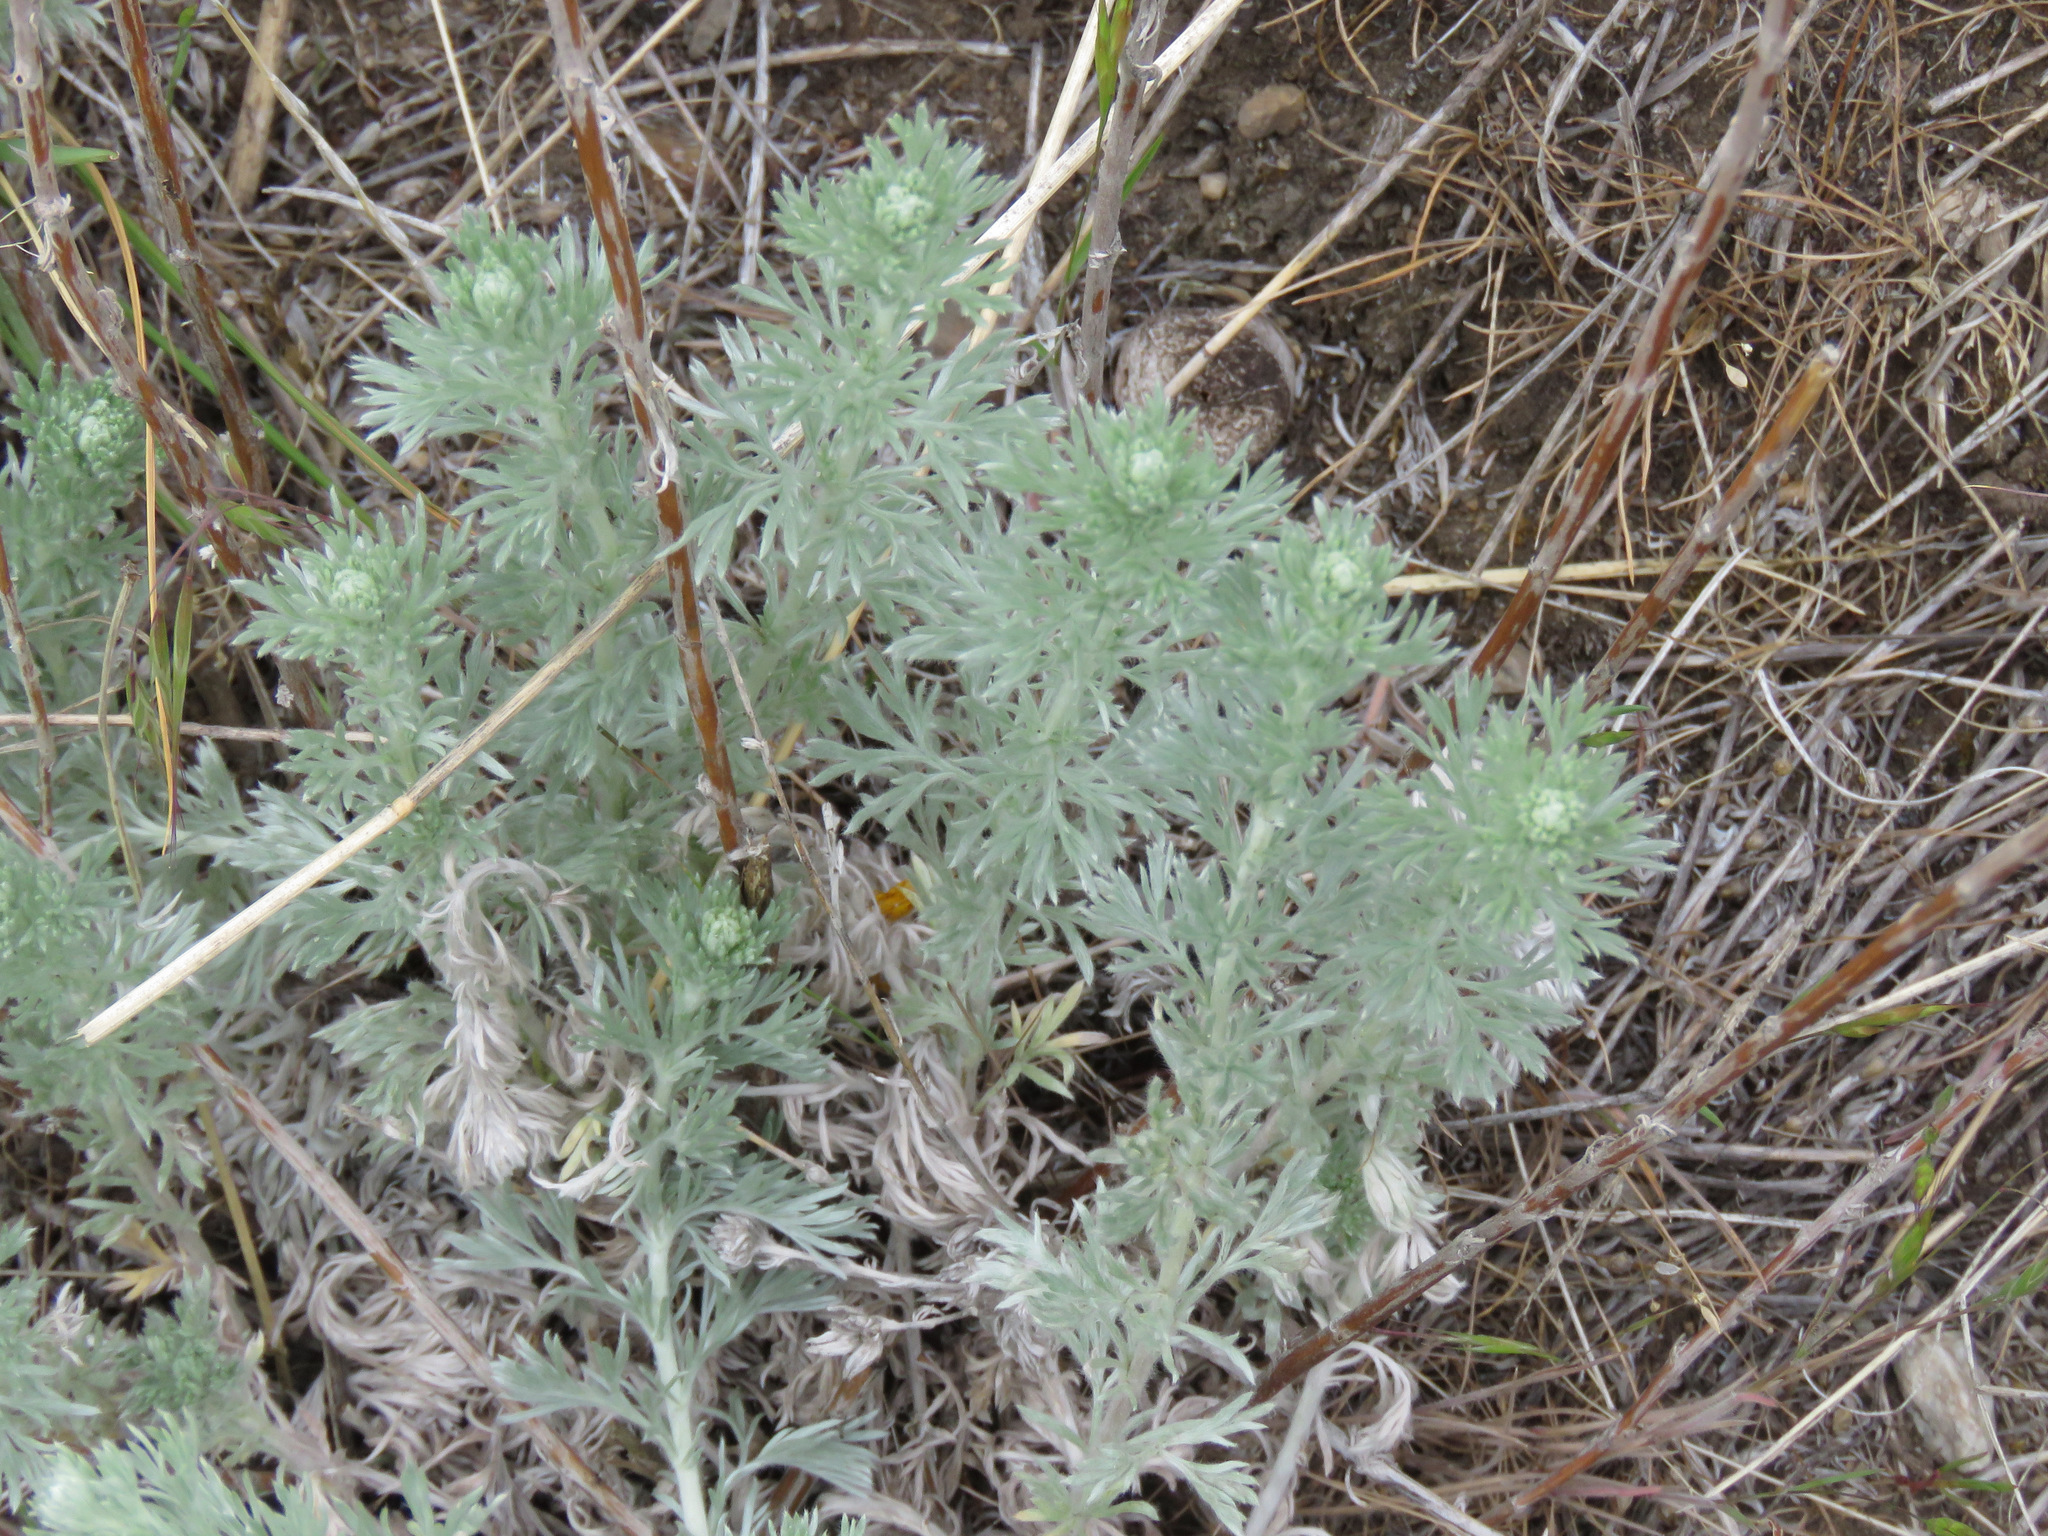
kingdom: Plantae
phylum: Tracheophyta
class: Magnoliopsida
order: Asterales
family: Asteraceae
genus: Artemisia
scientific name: Artemisia frigida
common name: Prairie sagewort
